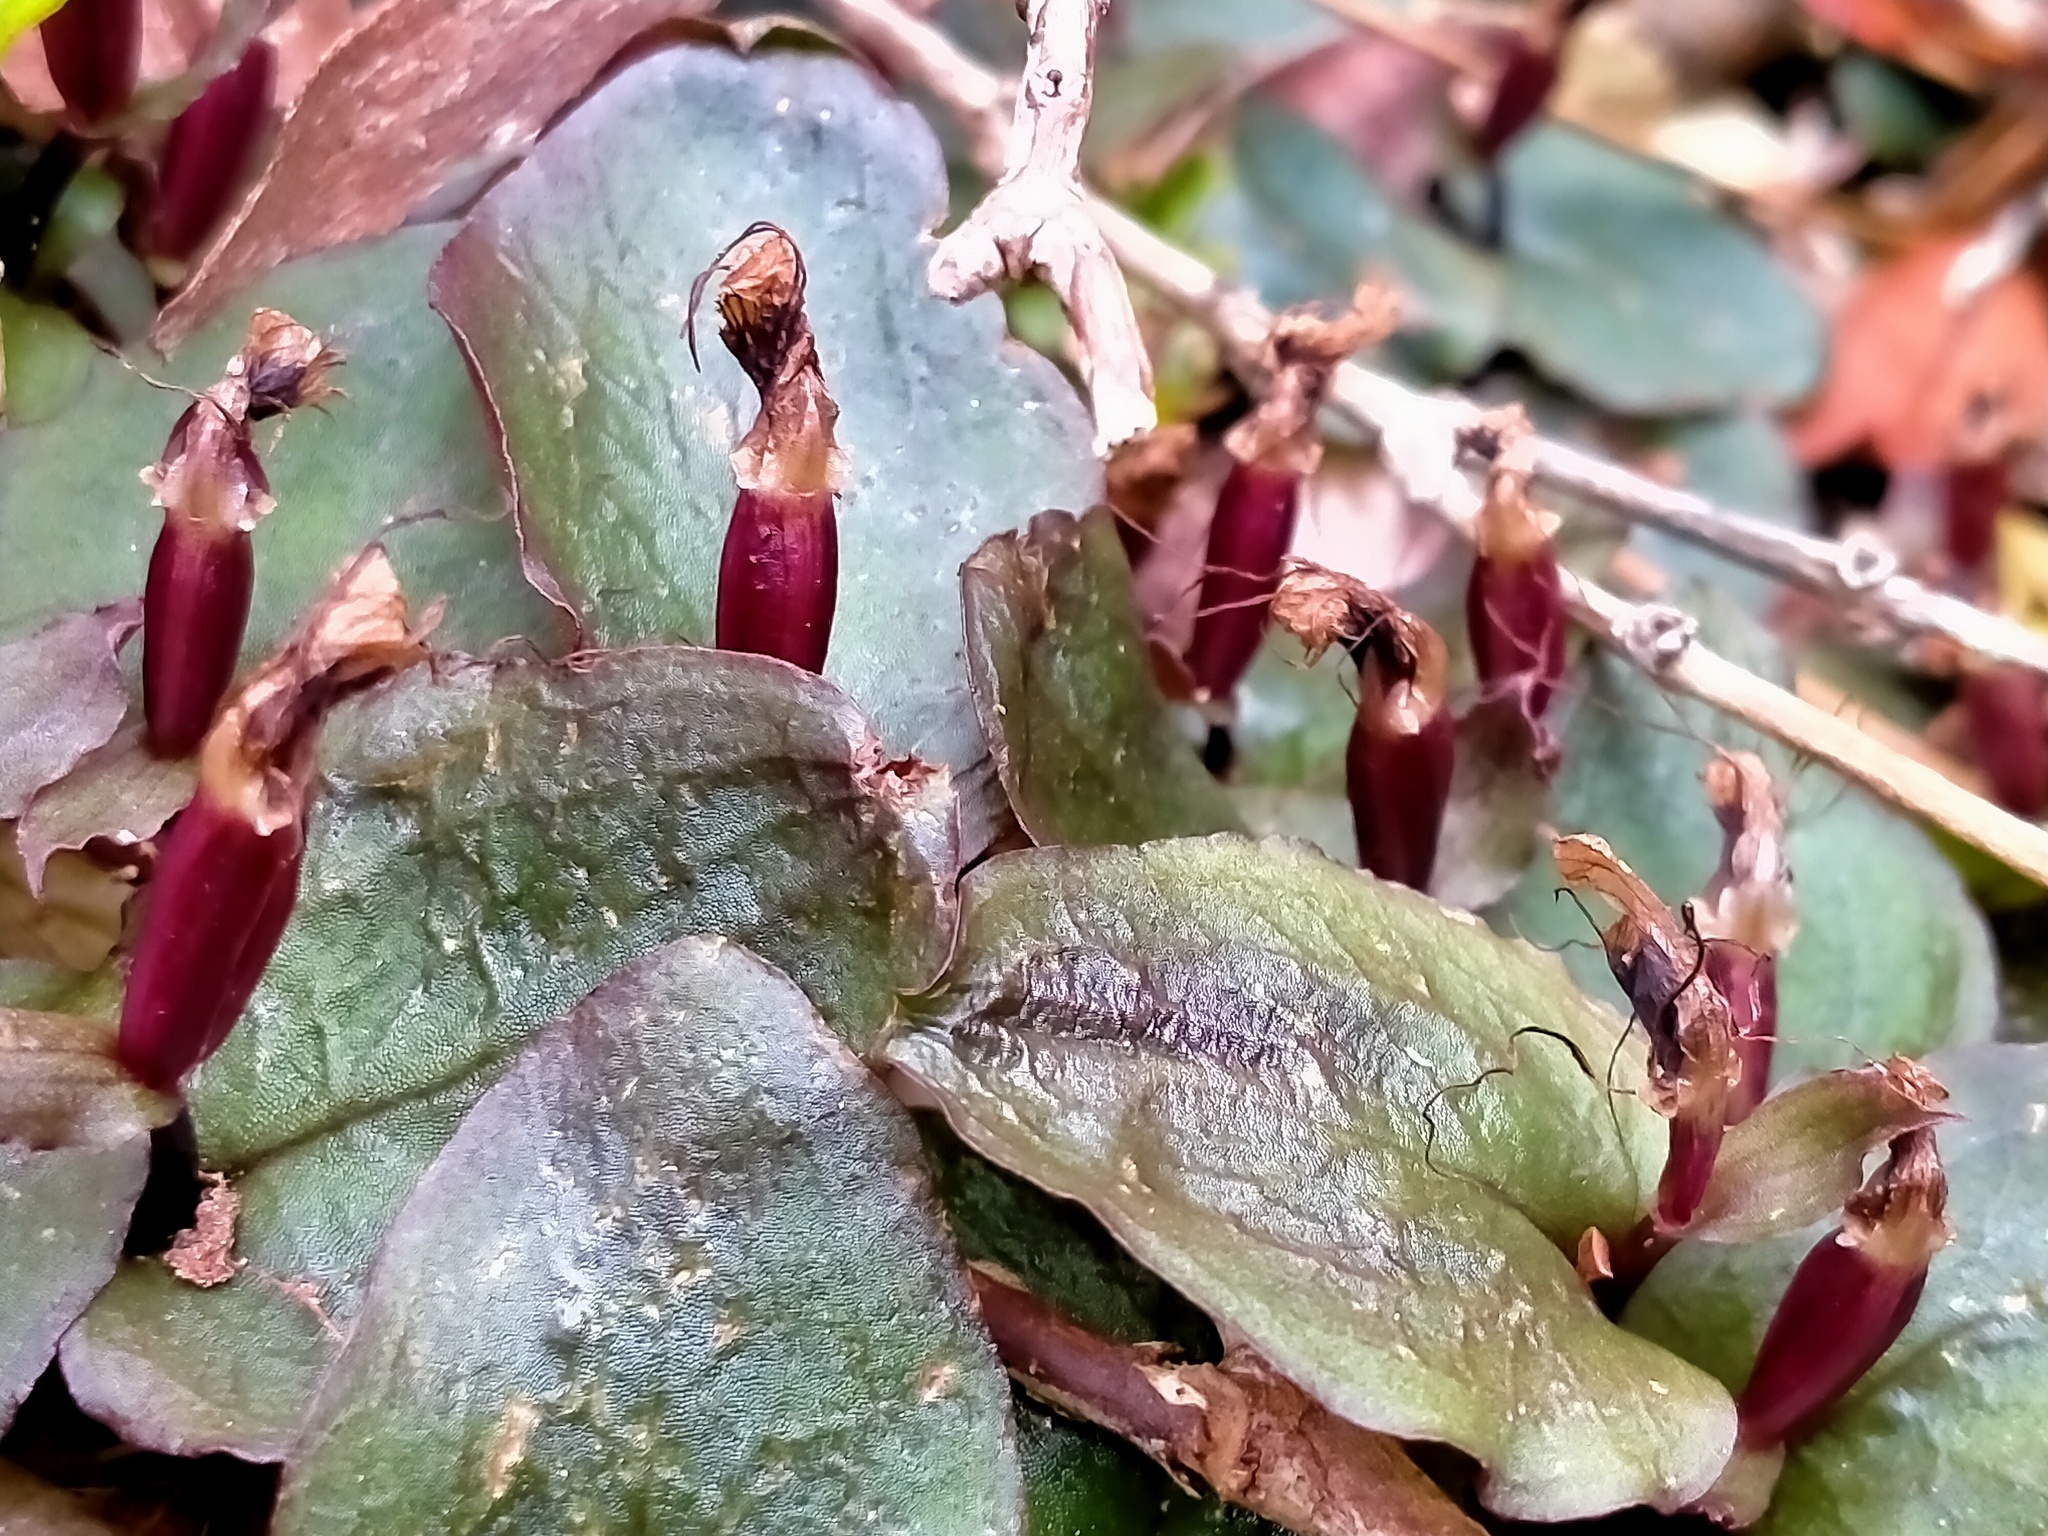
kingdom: Plantae
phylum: Tracheophyta
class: Liliopsida
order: Asparagales
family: Orchidaceae
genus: Corybas
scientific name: Corybas oblongus
